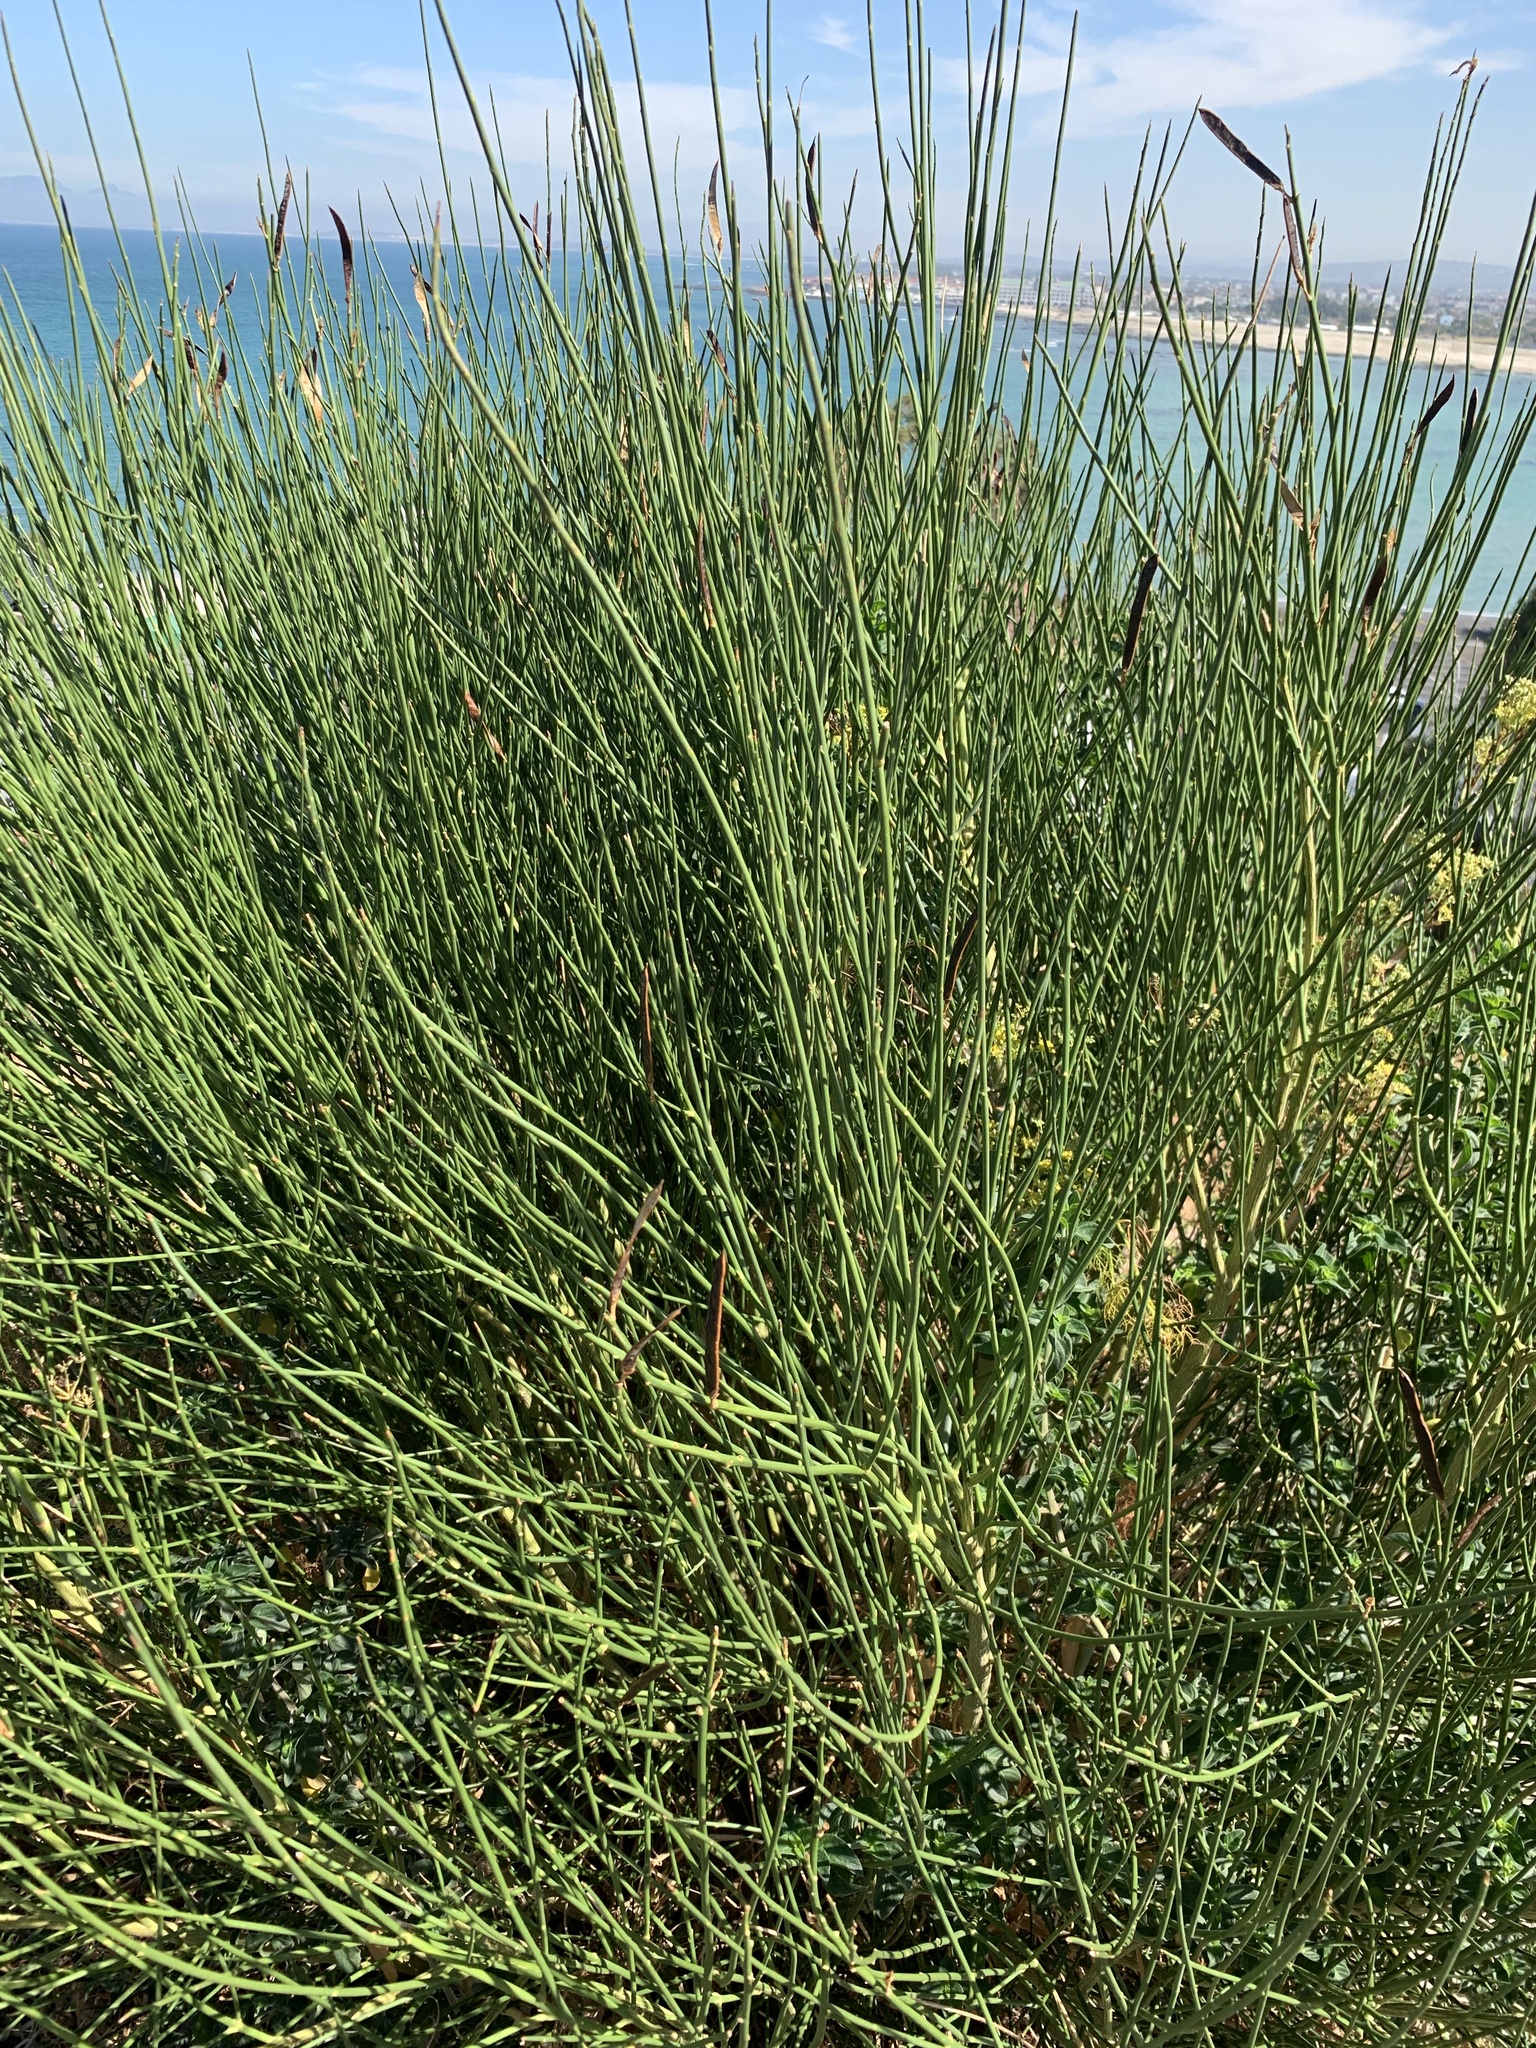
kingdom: Plantae
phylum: Tracheophyta
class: Magnoliopsida
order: Fabales
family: Fabaceae
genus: Spartium
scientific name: Spartium junceum
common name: Spanish broom
